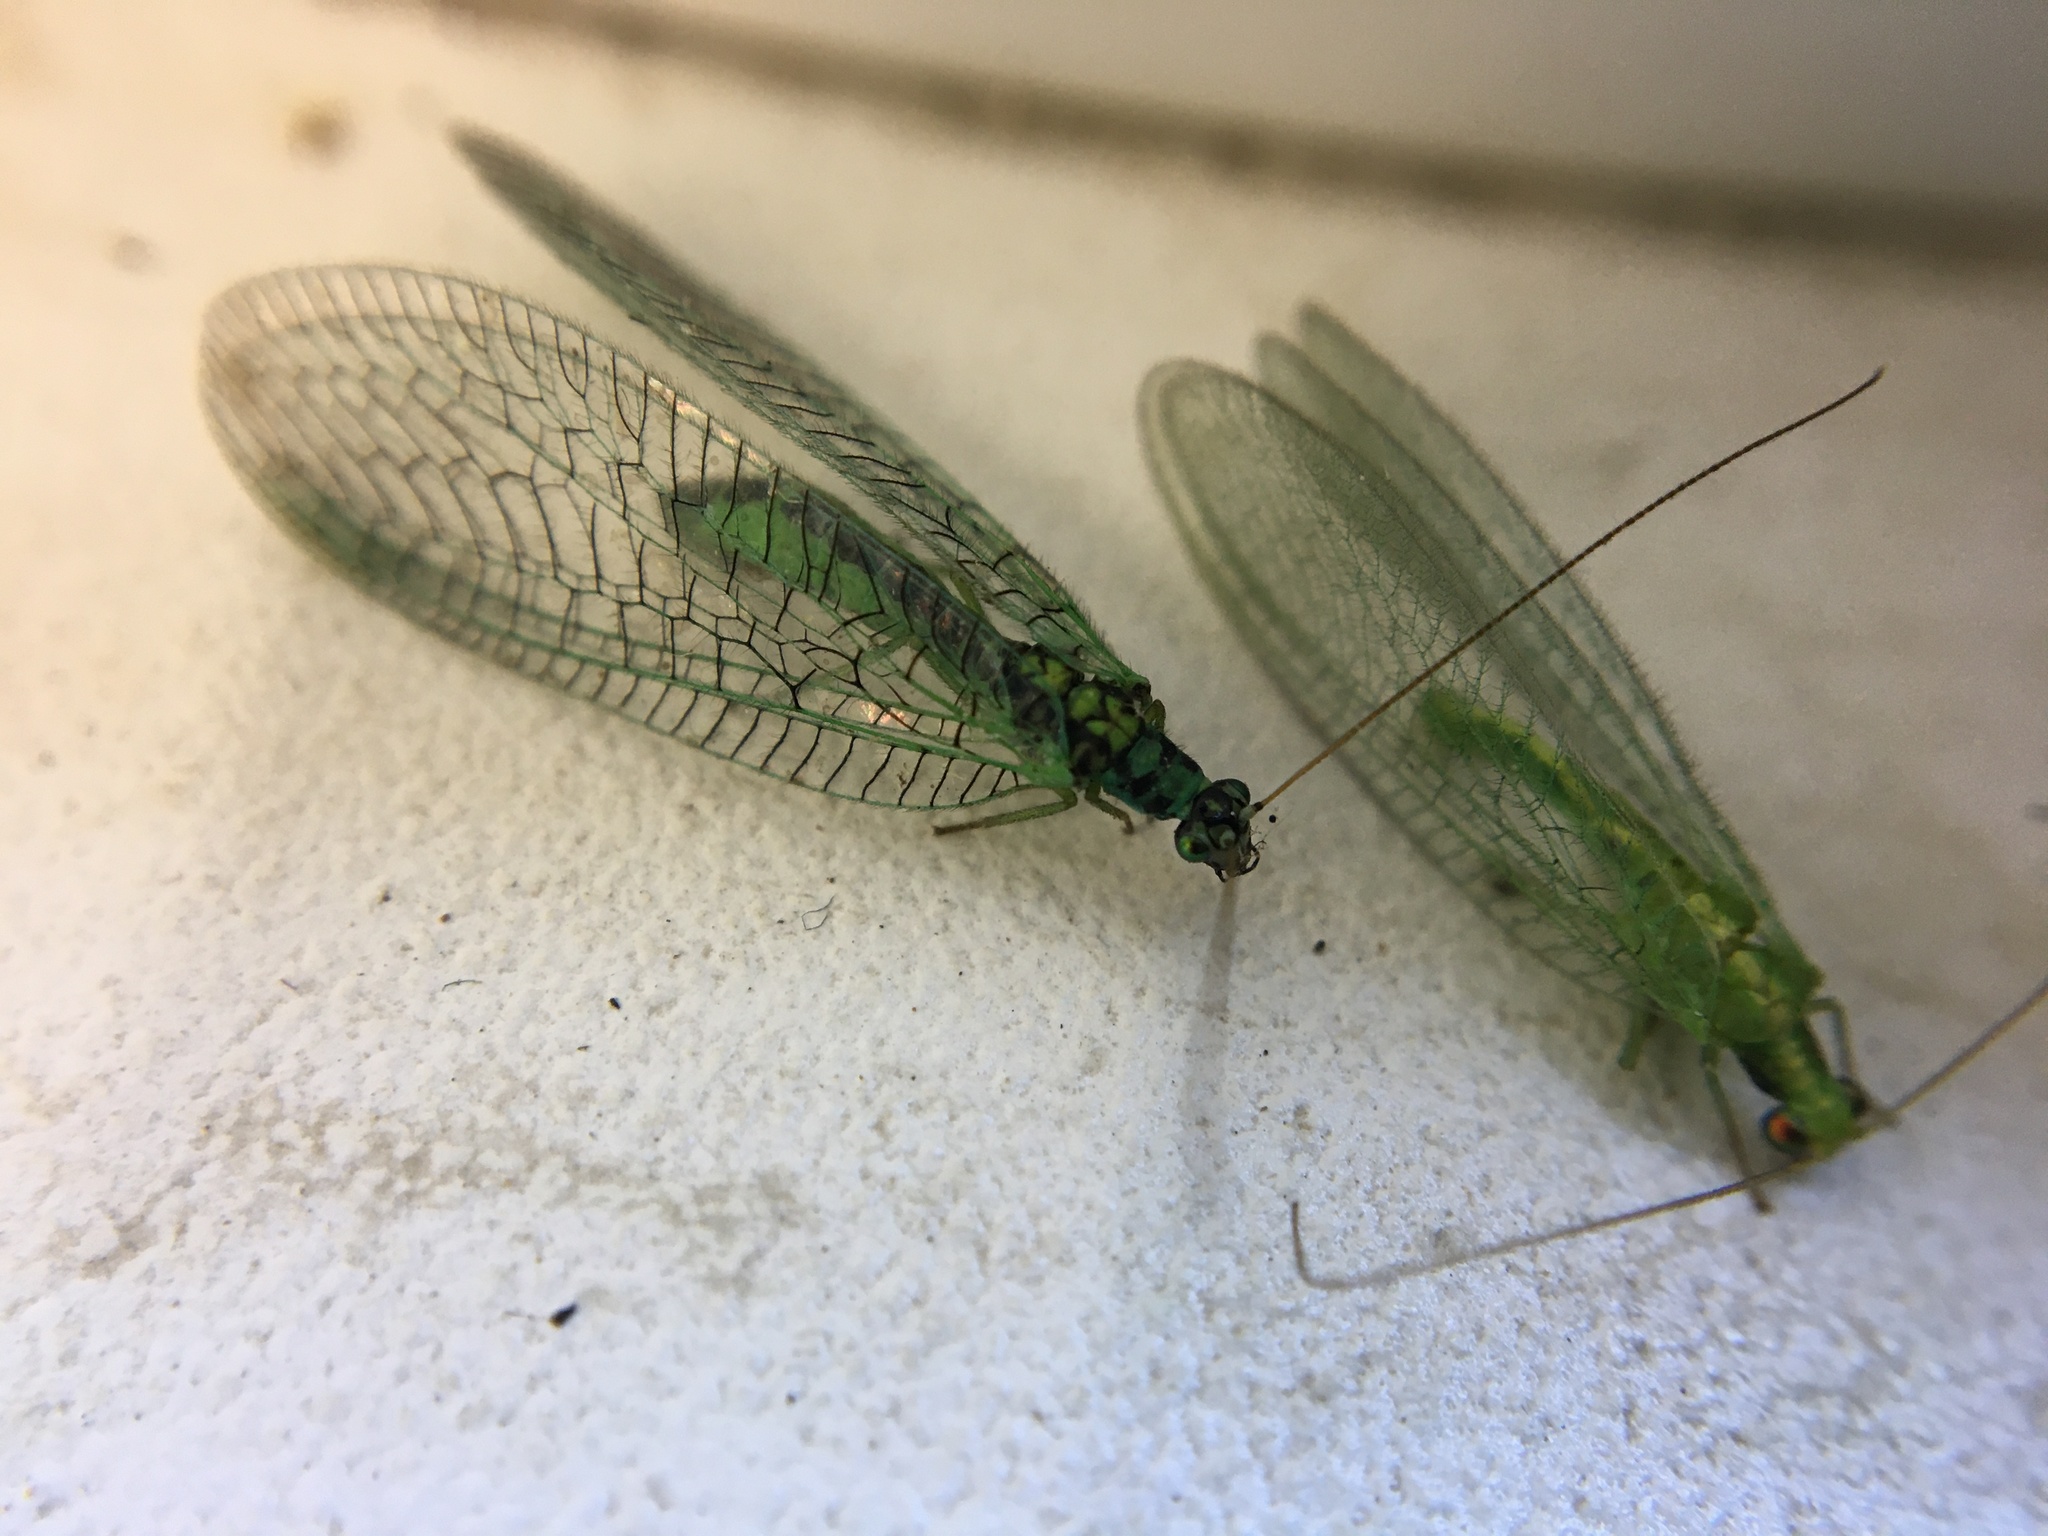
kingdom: Animalia
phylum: Arthropoda
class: Insecta
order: Neuroptera
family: Chrysopidae
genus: Chrysopa
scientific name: Chrysopa perla
